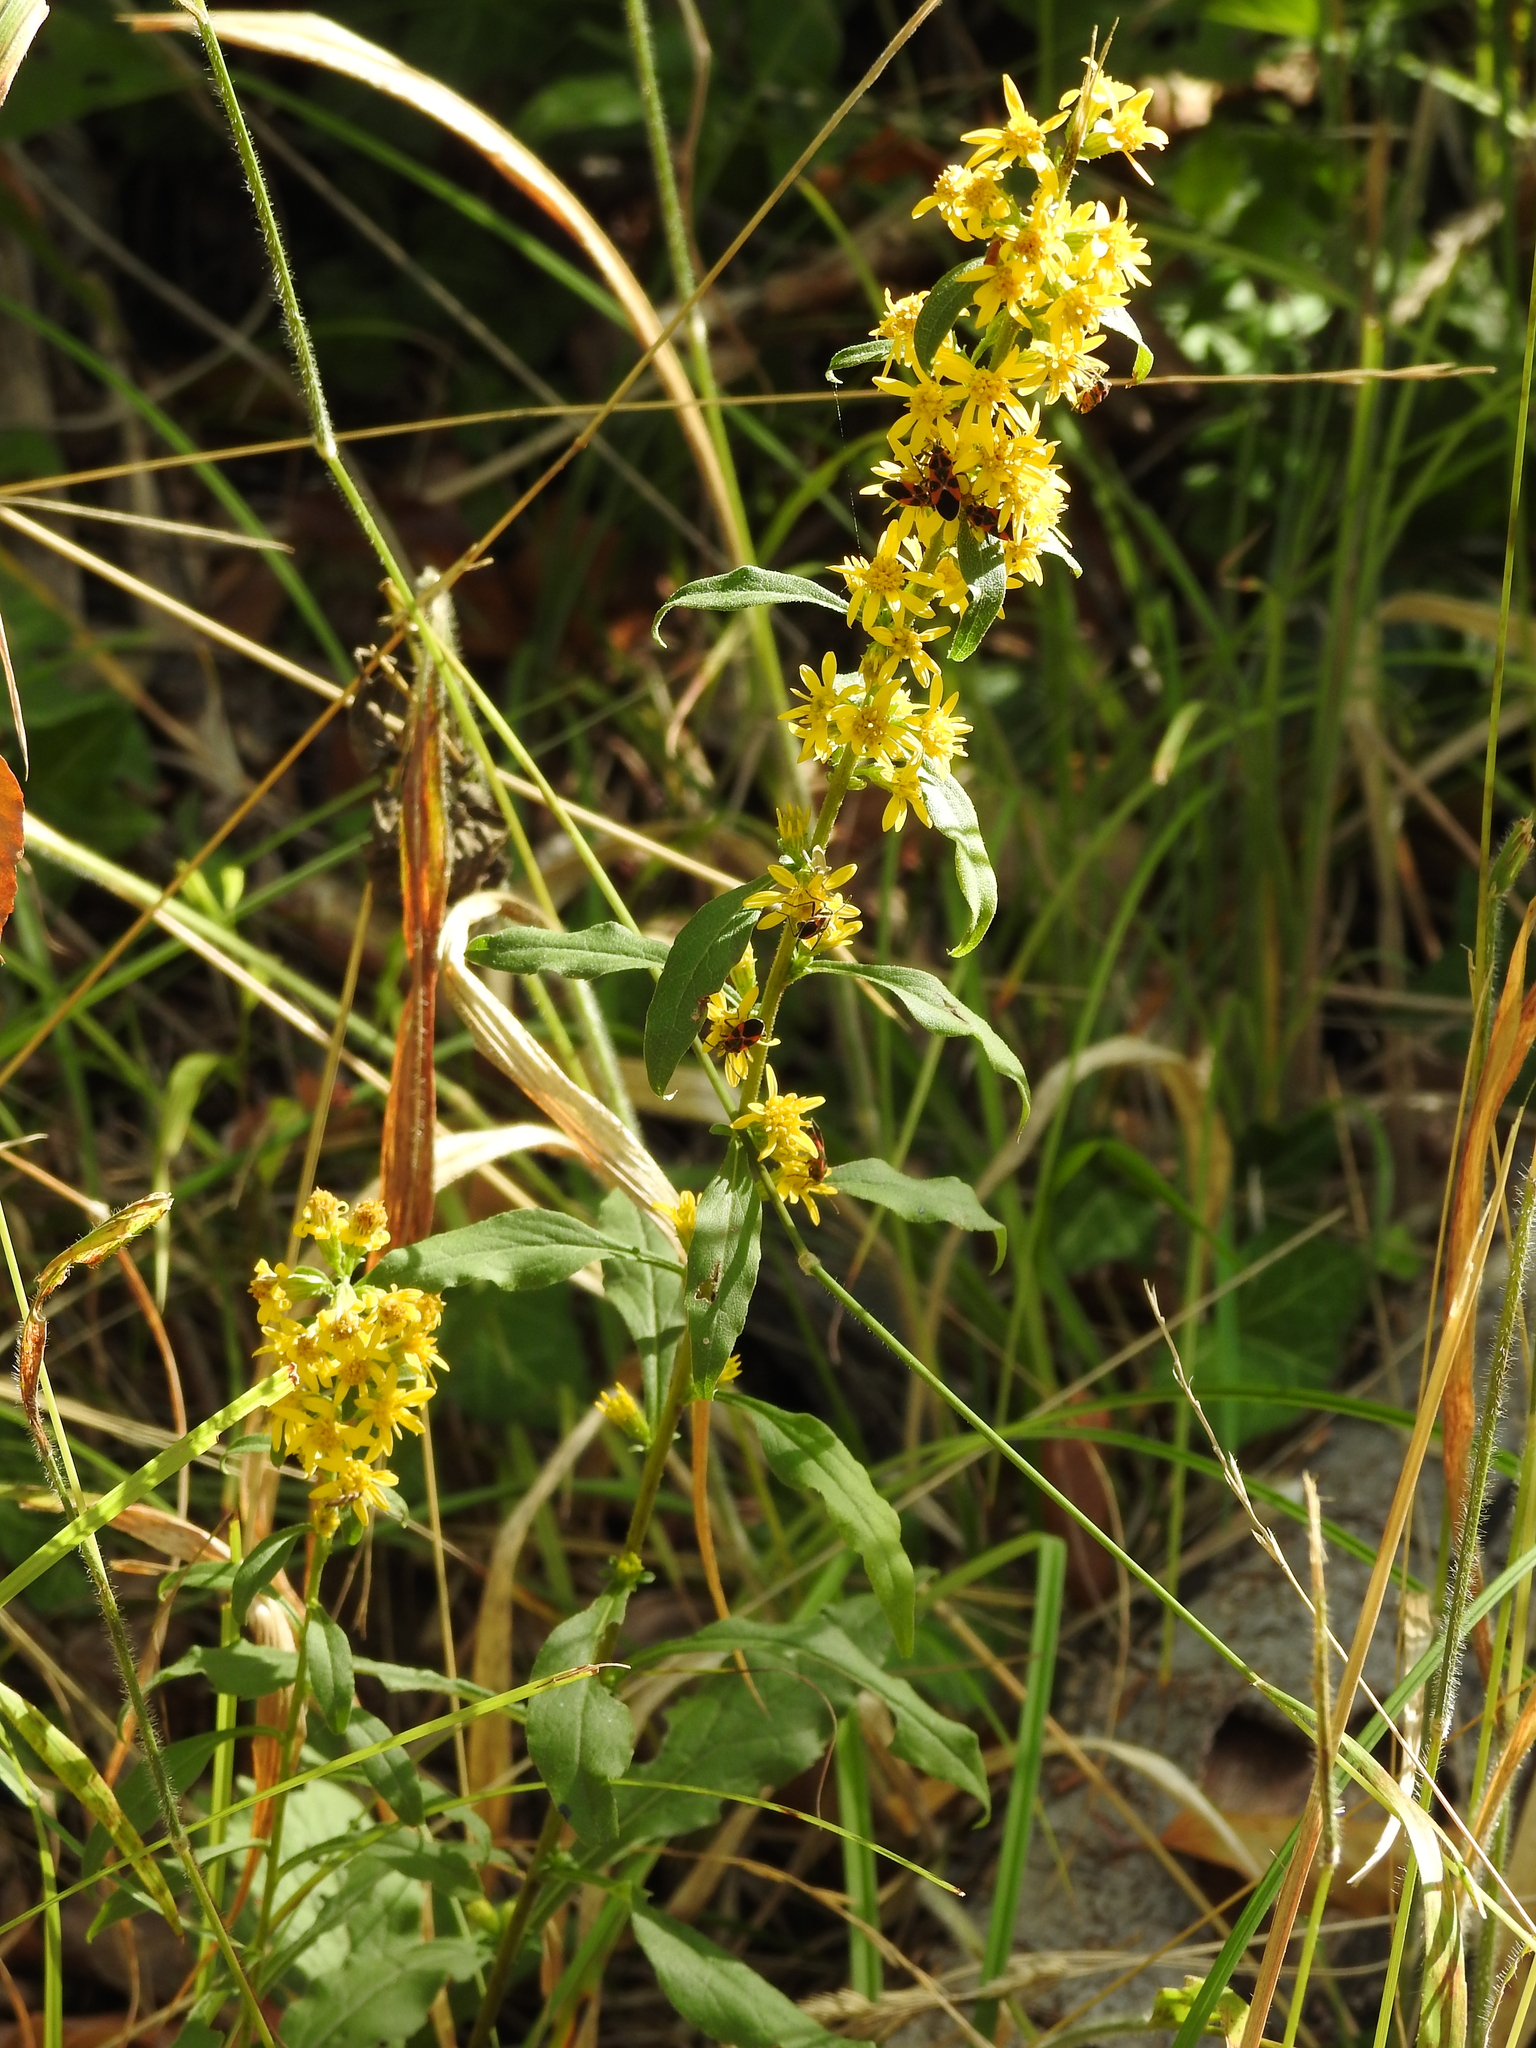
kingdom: Plantae
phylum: Tracheophyta
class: Magnoliopsida
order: Asterales
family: Asteraceae
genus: Solidago
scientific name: Solidago virgaurea
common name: Goldenrod
